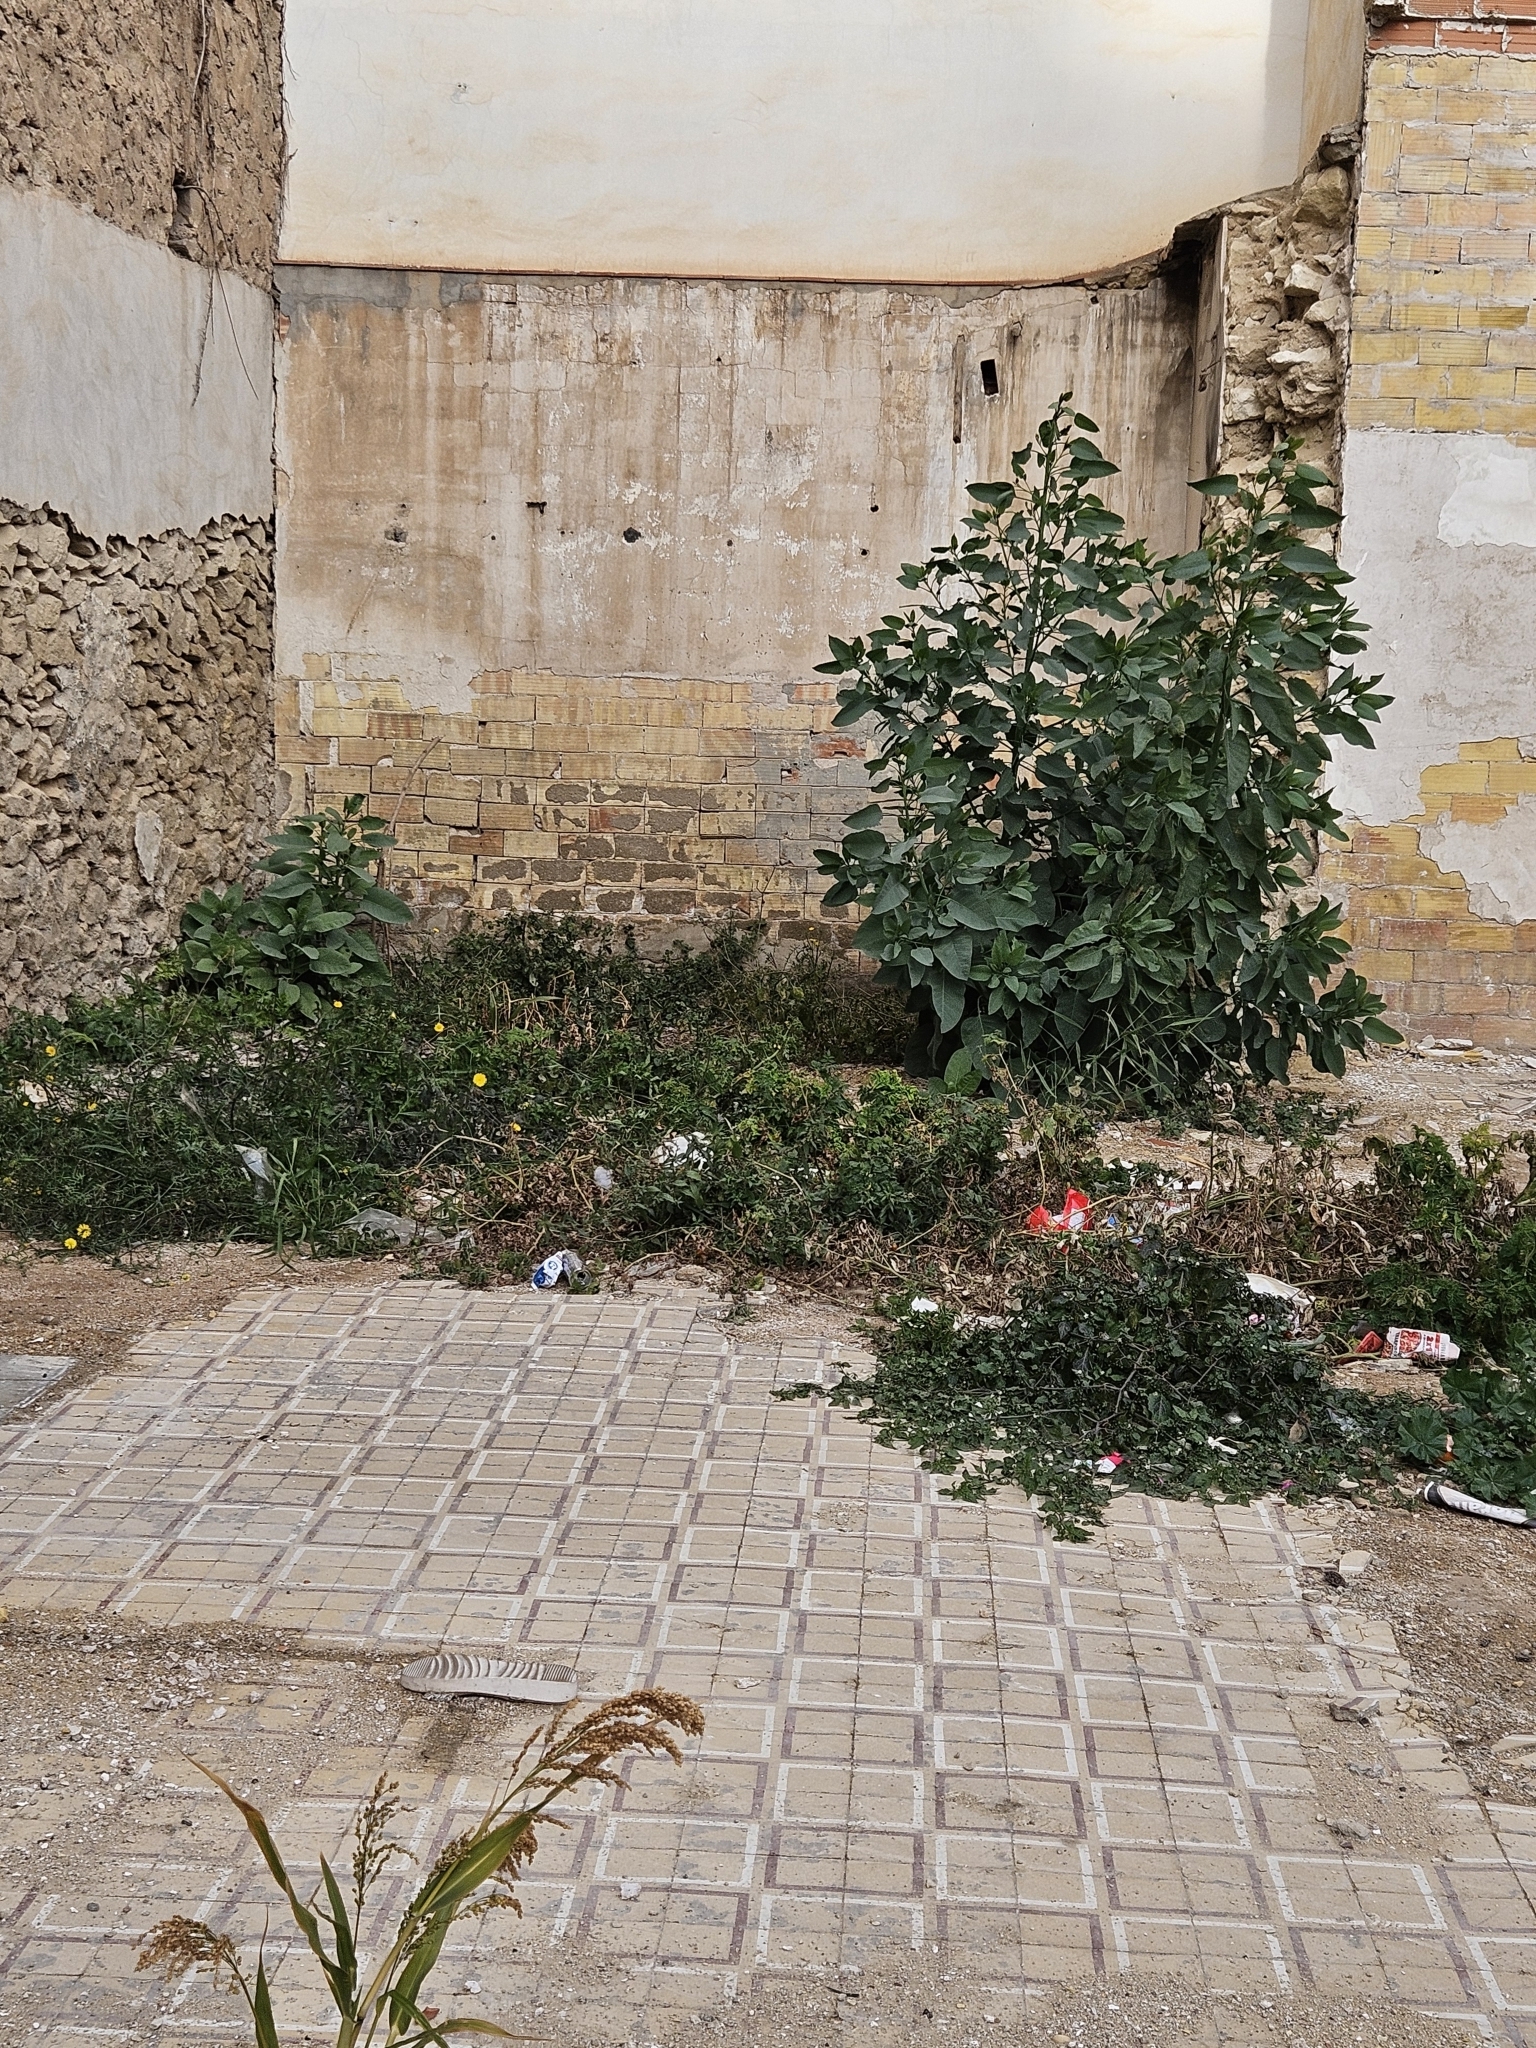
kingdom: Plantae
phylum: Tracheophyta
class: Magnoliopsida
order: Solanales
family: Solanaceae
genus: Nicotiana
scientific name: Nicotiana glauca
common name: Tree tobacco
